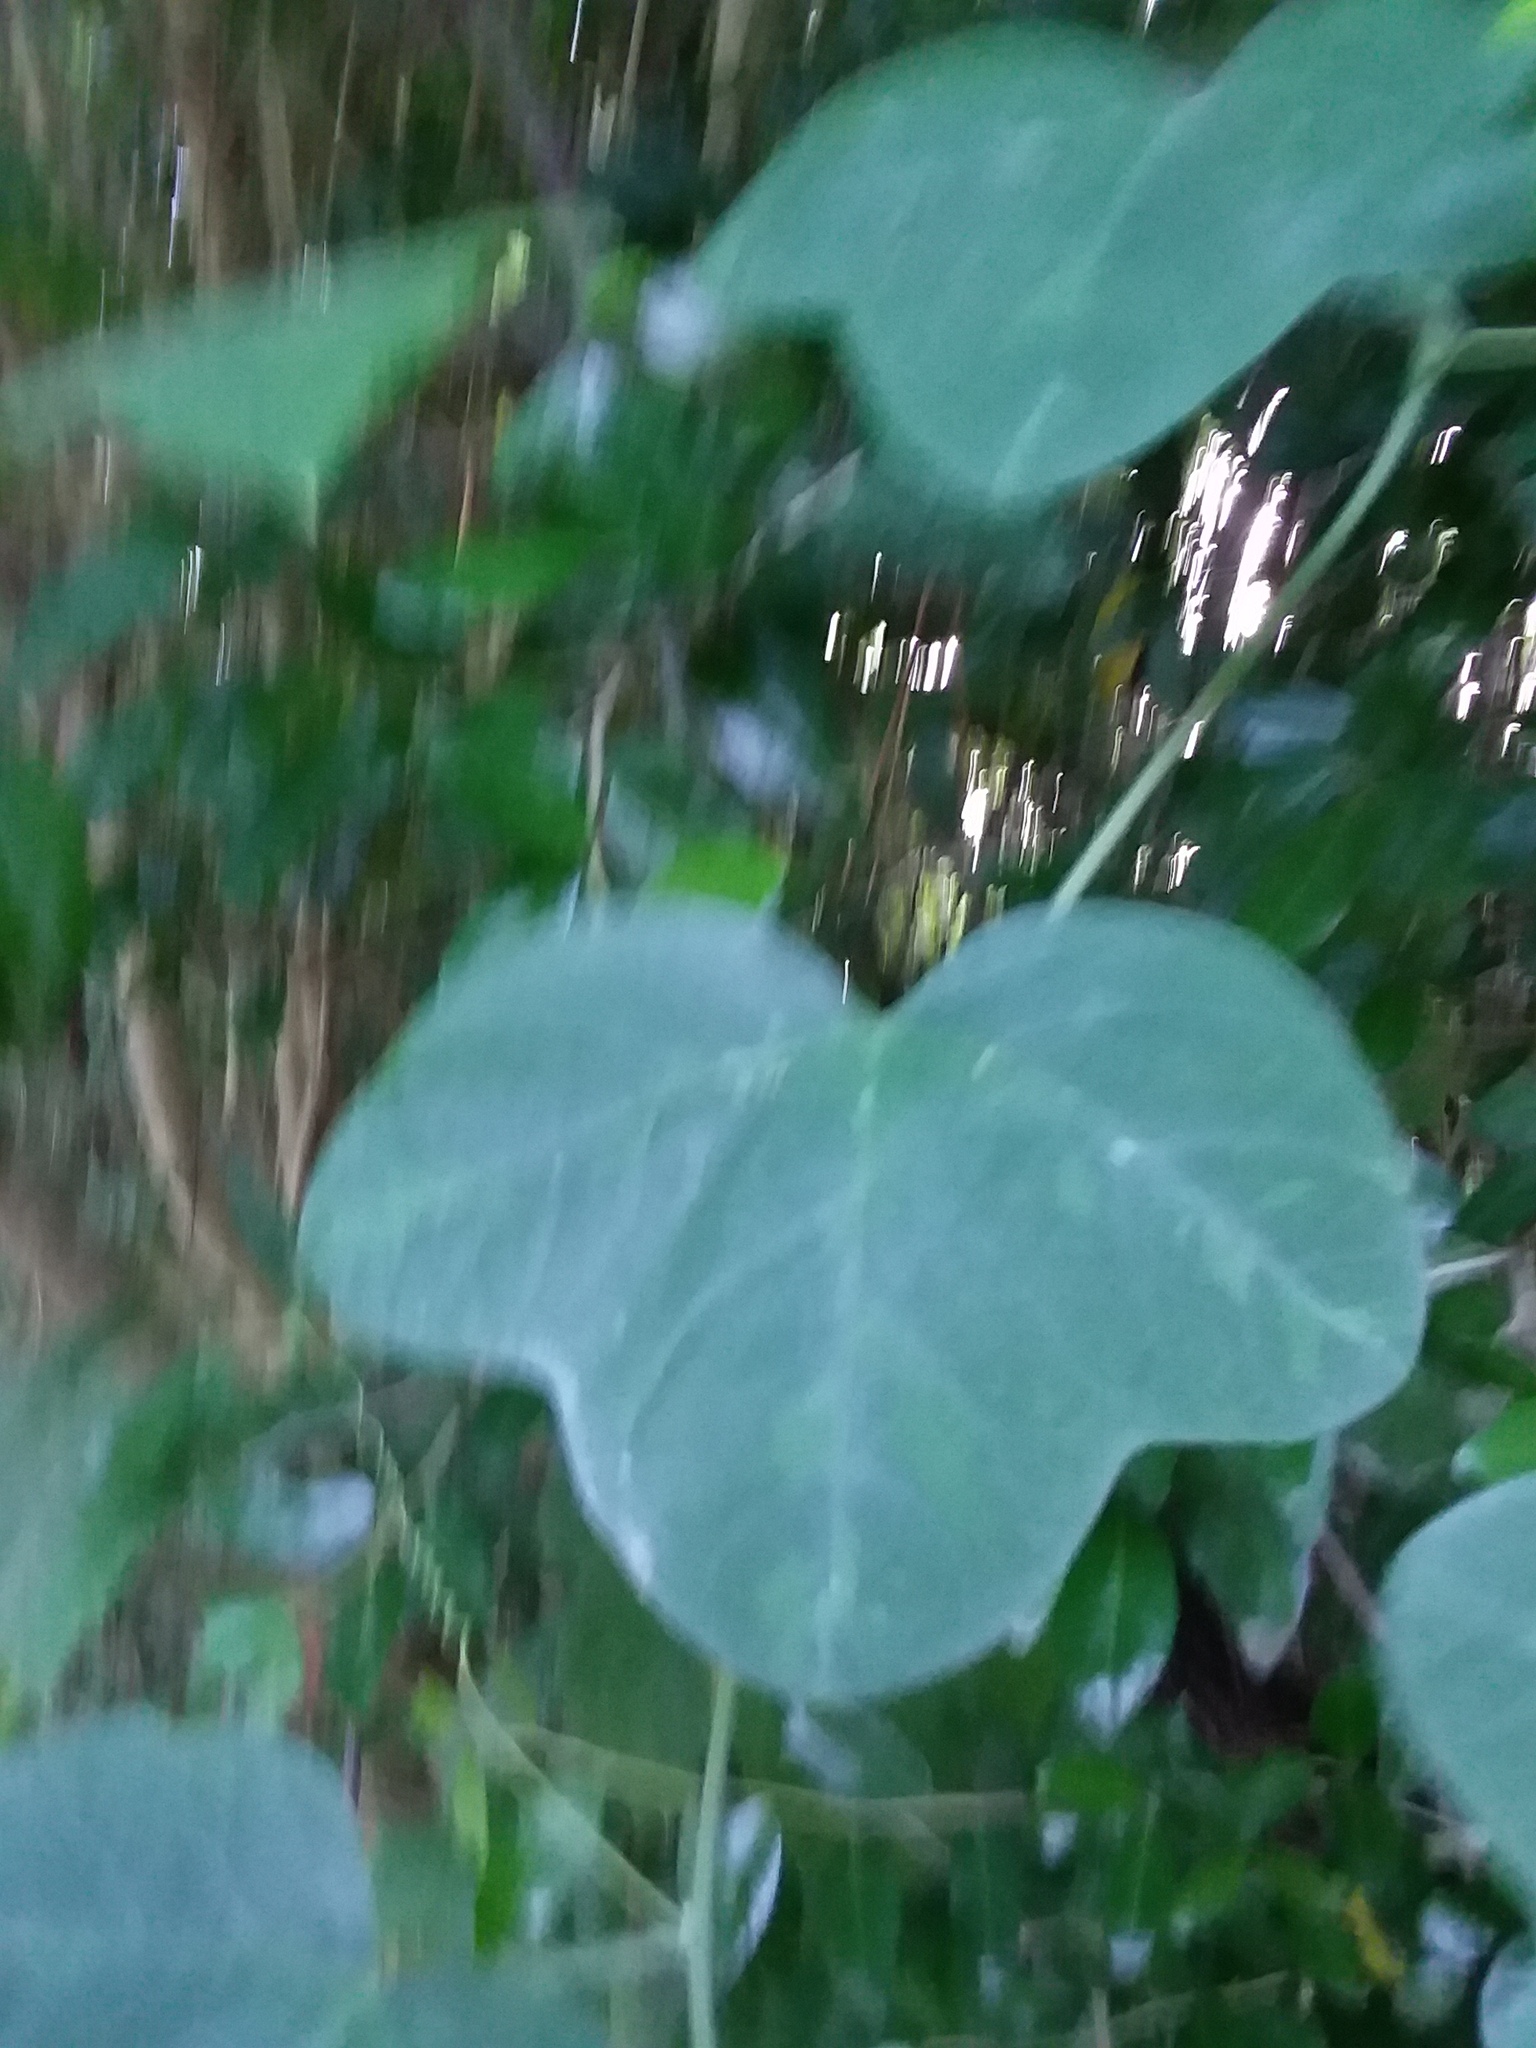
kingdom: Plantae
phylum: Tracheophyta
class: Magnoliopsida
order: Malpighiales
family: Passifloraceae
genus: Passiflora
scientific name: Passiflora lutea
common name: Yellow passionflower
